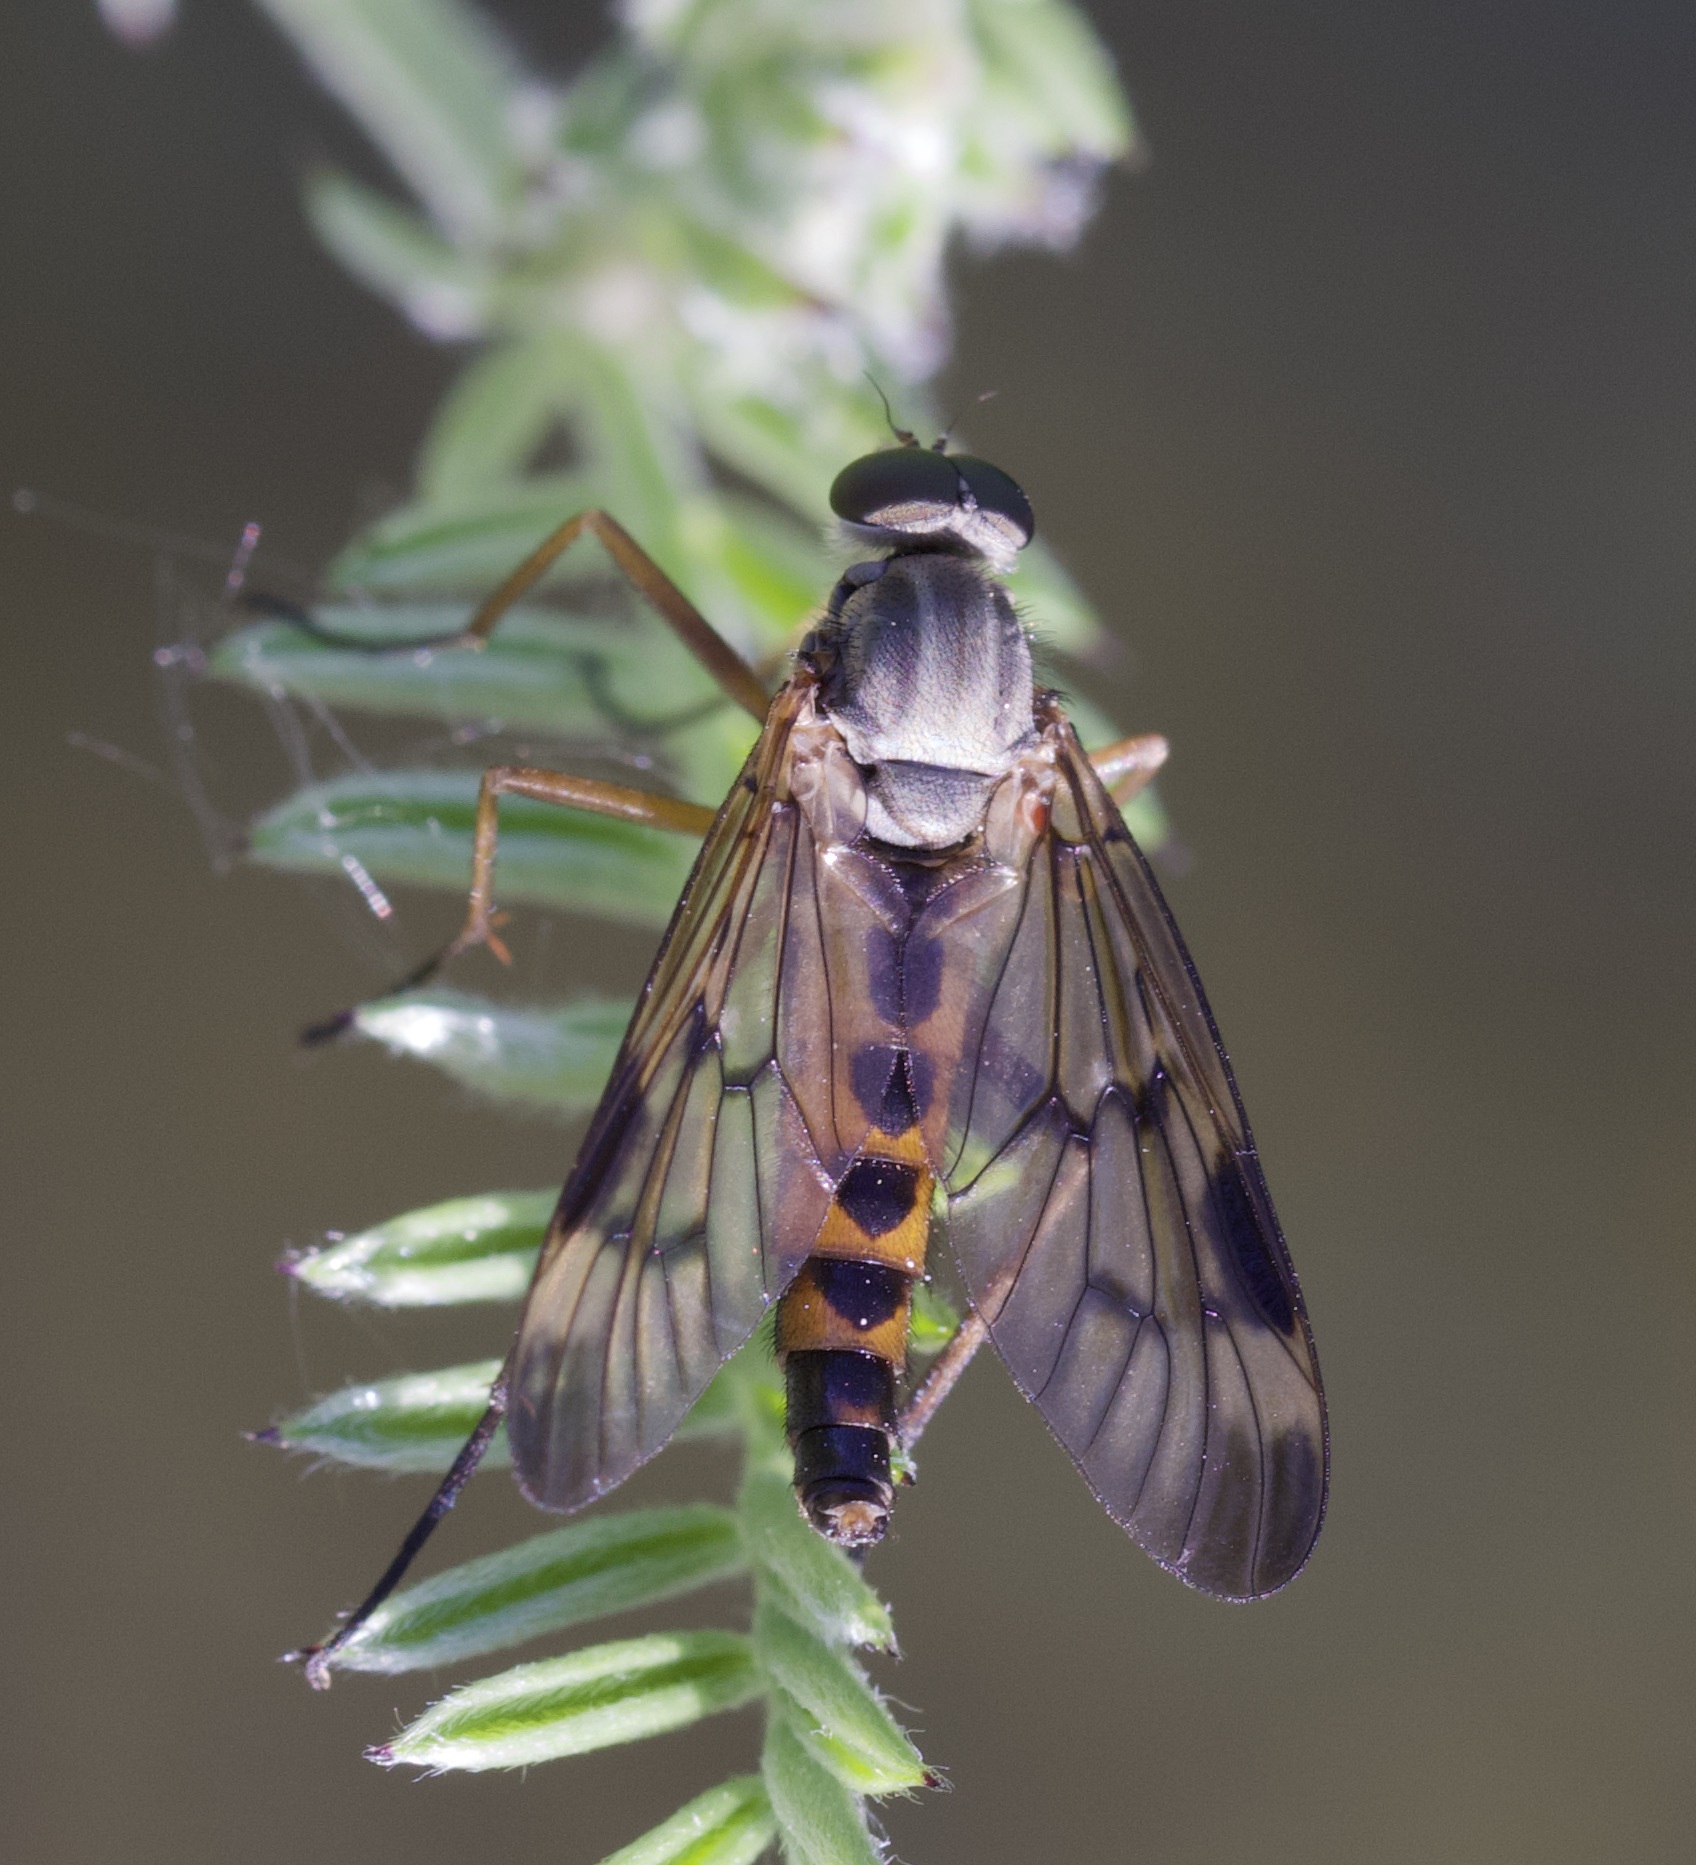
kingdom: Animalia
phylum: Arthropoda
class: Insecta
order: Diptera
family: Rhagionidae
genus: Rhagio
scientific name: Rhagio scolopacea
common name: Downlooker snipefly
